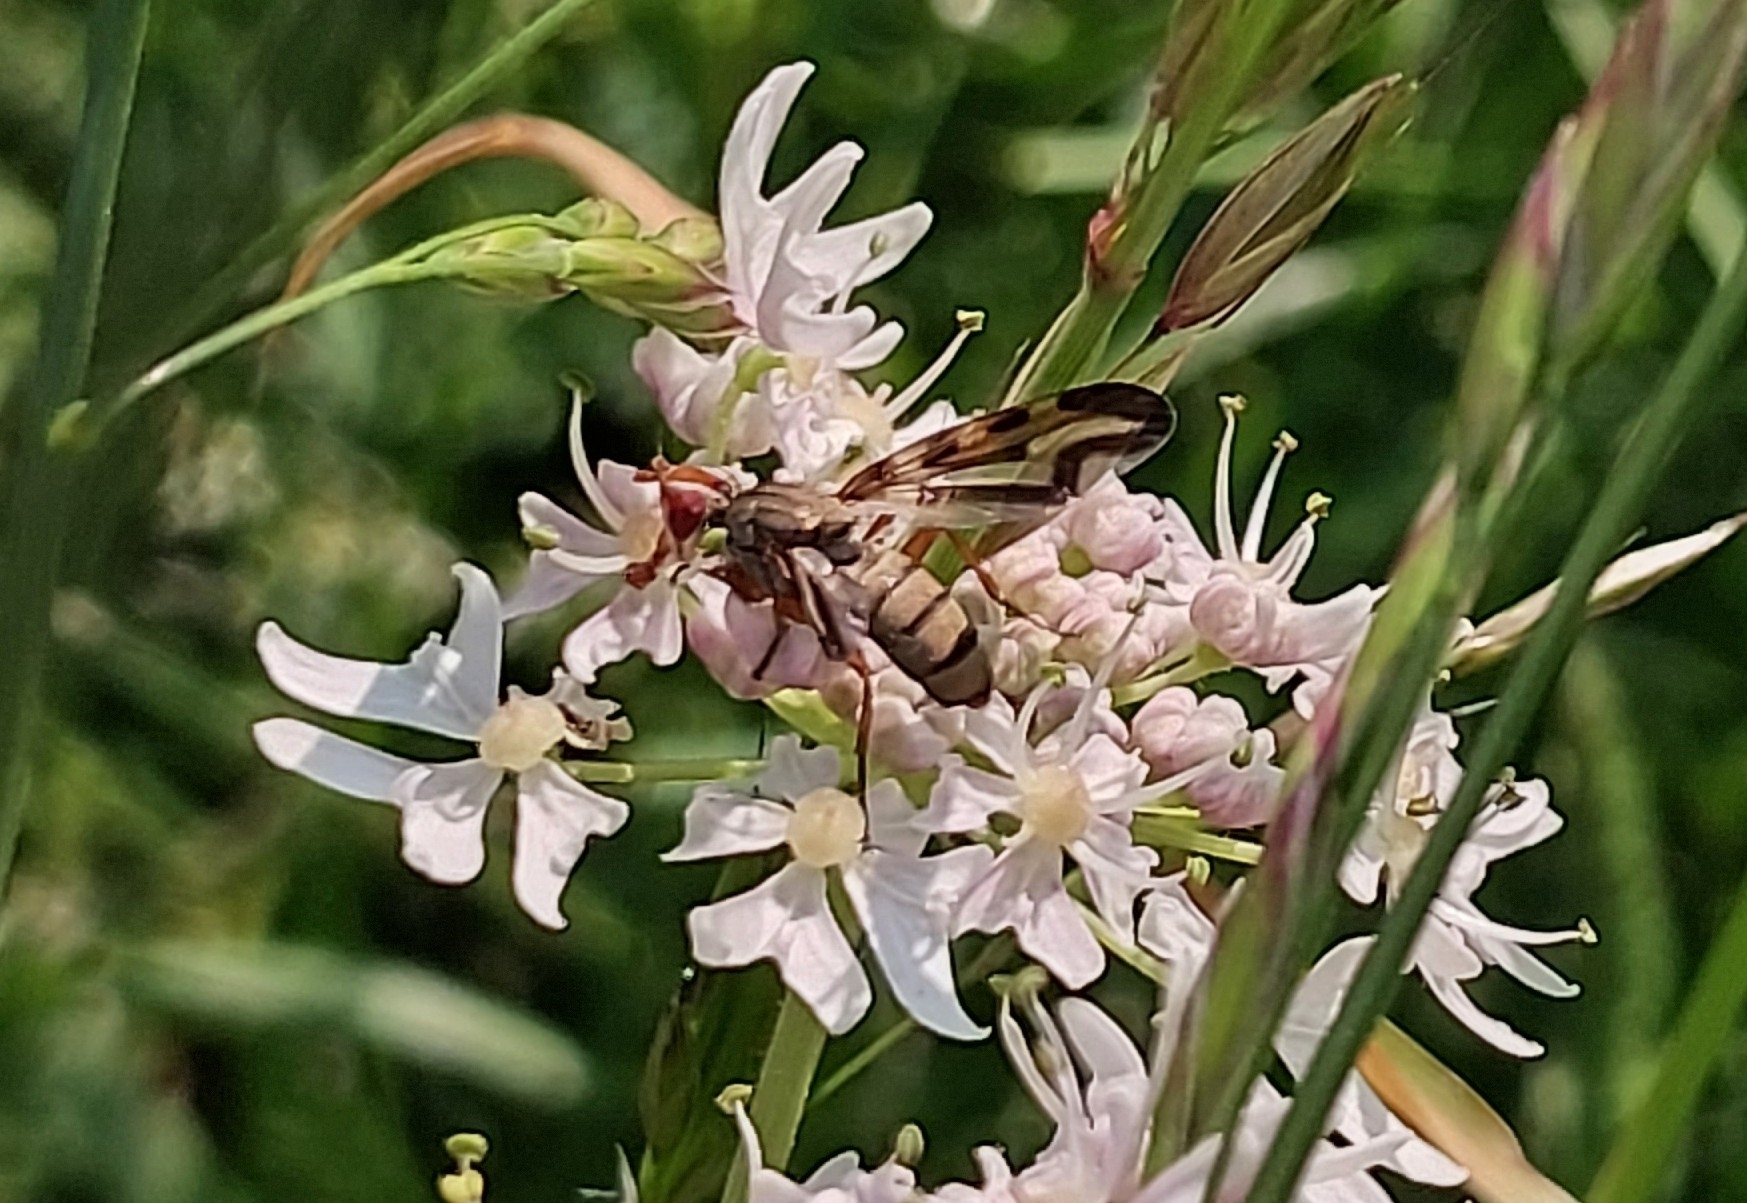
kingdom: Animalia
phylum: Arthropoda
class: Insecta
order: Diptera
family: Ulidiidae
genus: Otites
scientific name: Otites lamed
